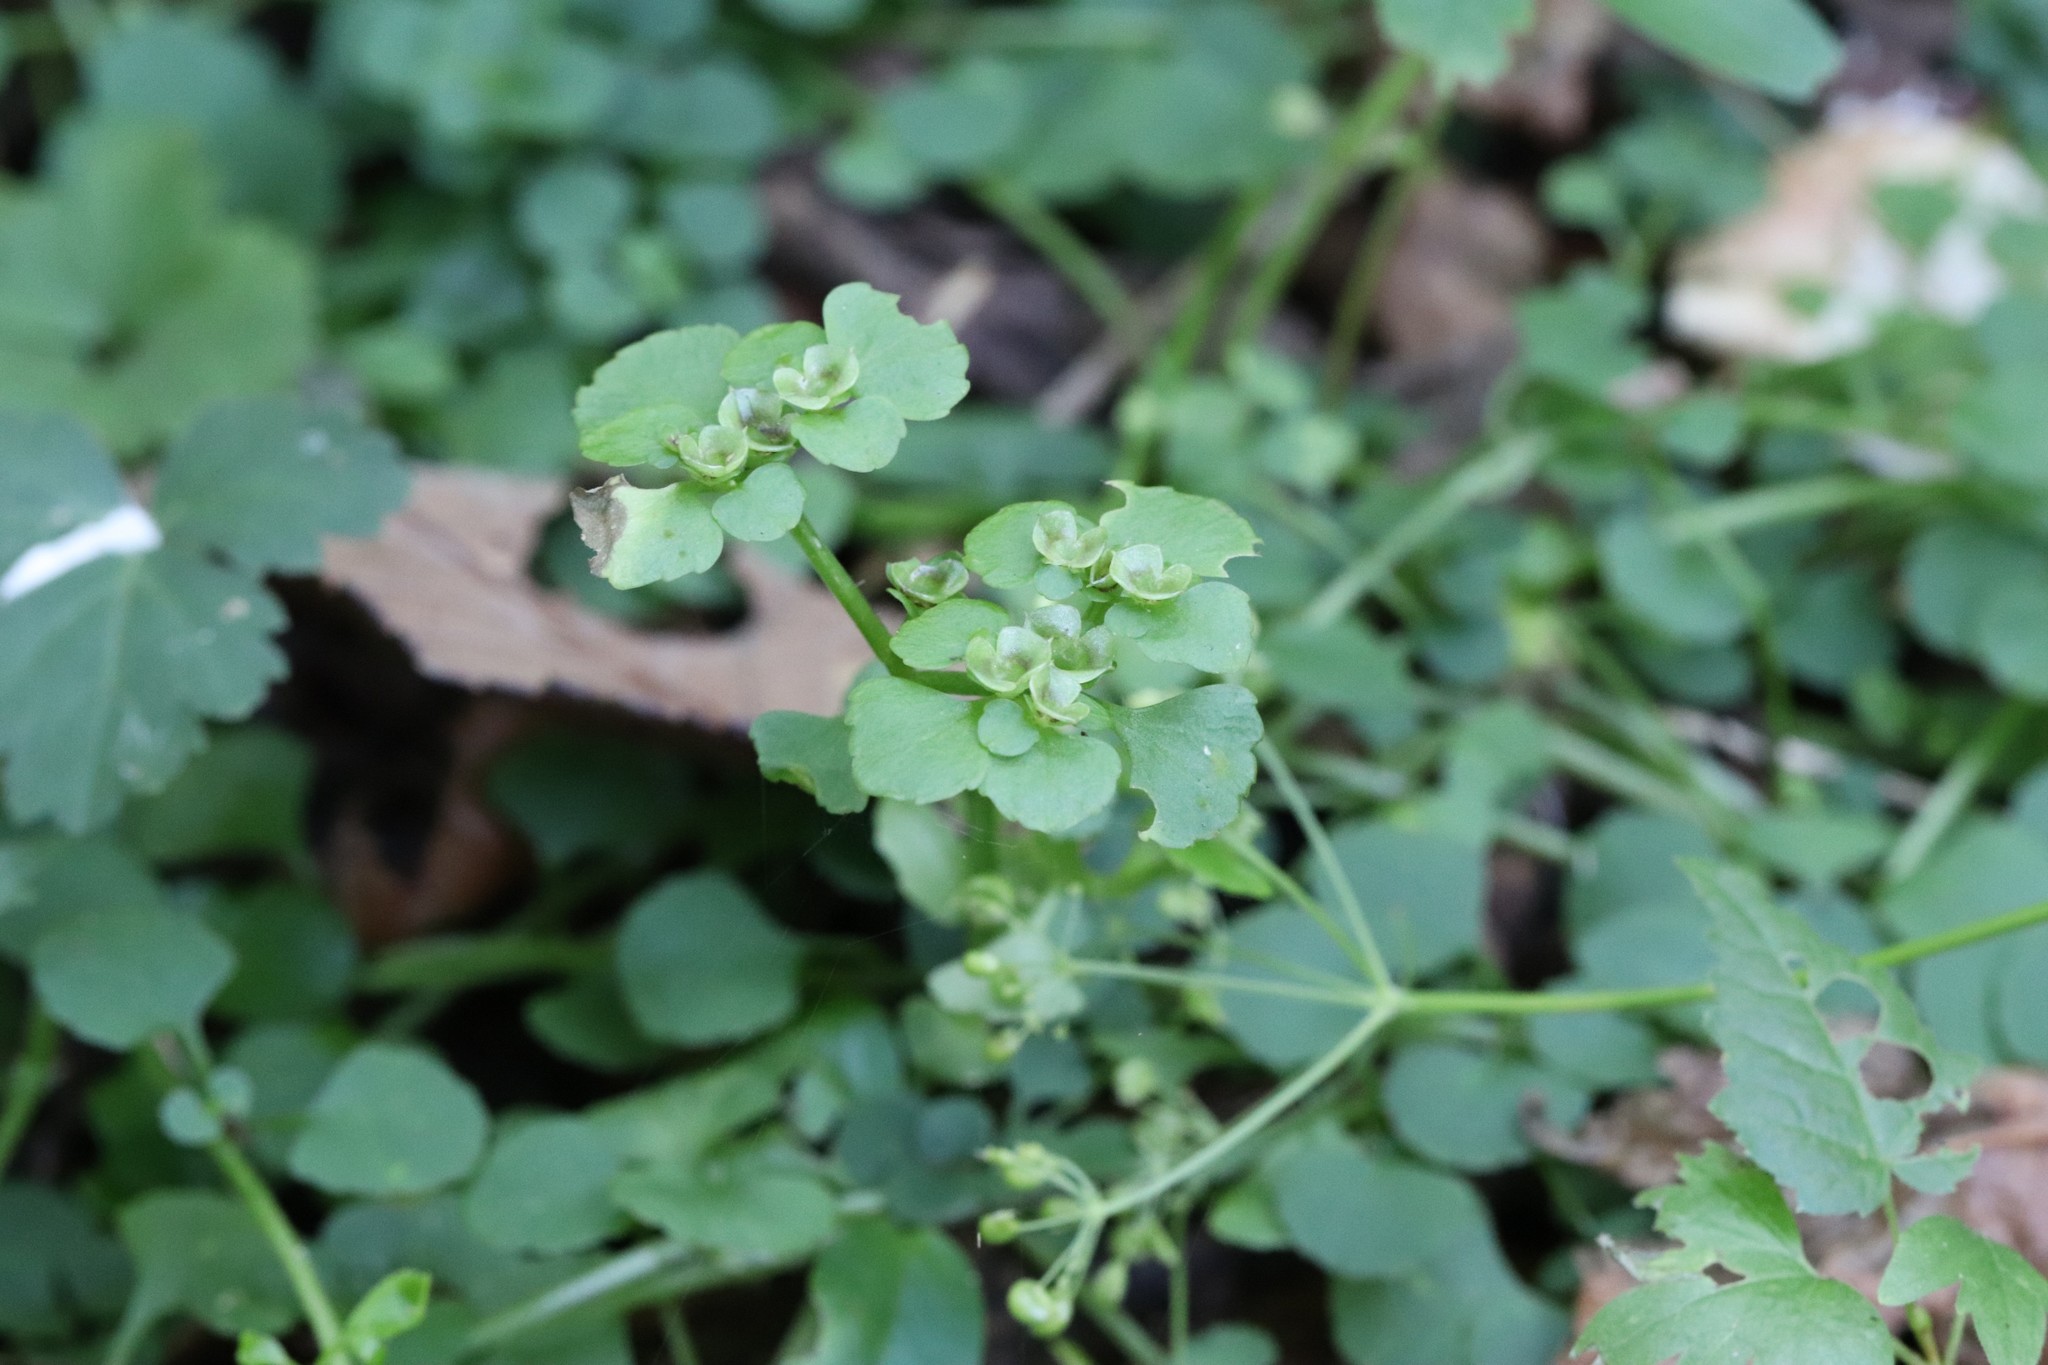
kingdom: Plantae
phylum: Tracheophyta
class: Magnoliopsida
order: Saxifragales
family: Saxifragaceae
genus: Chrysosplenium
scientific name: Chrysosplenium ramosum
